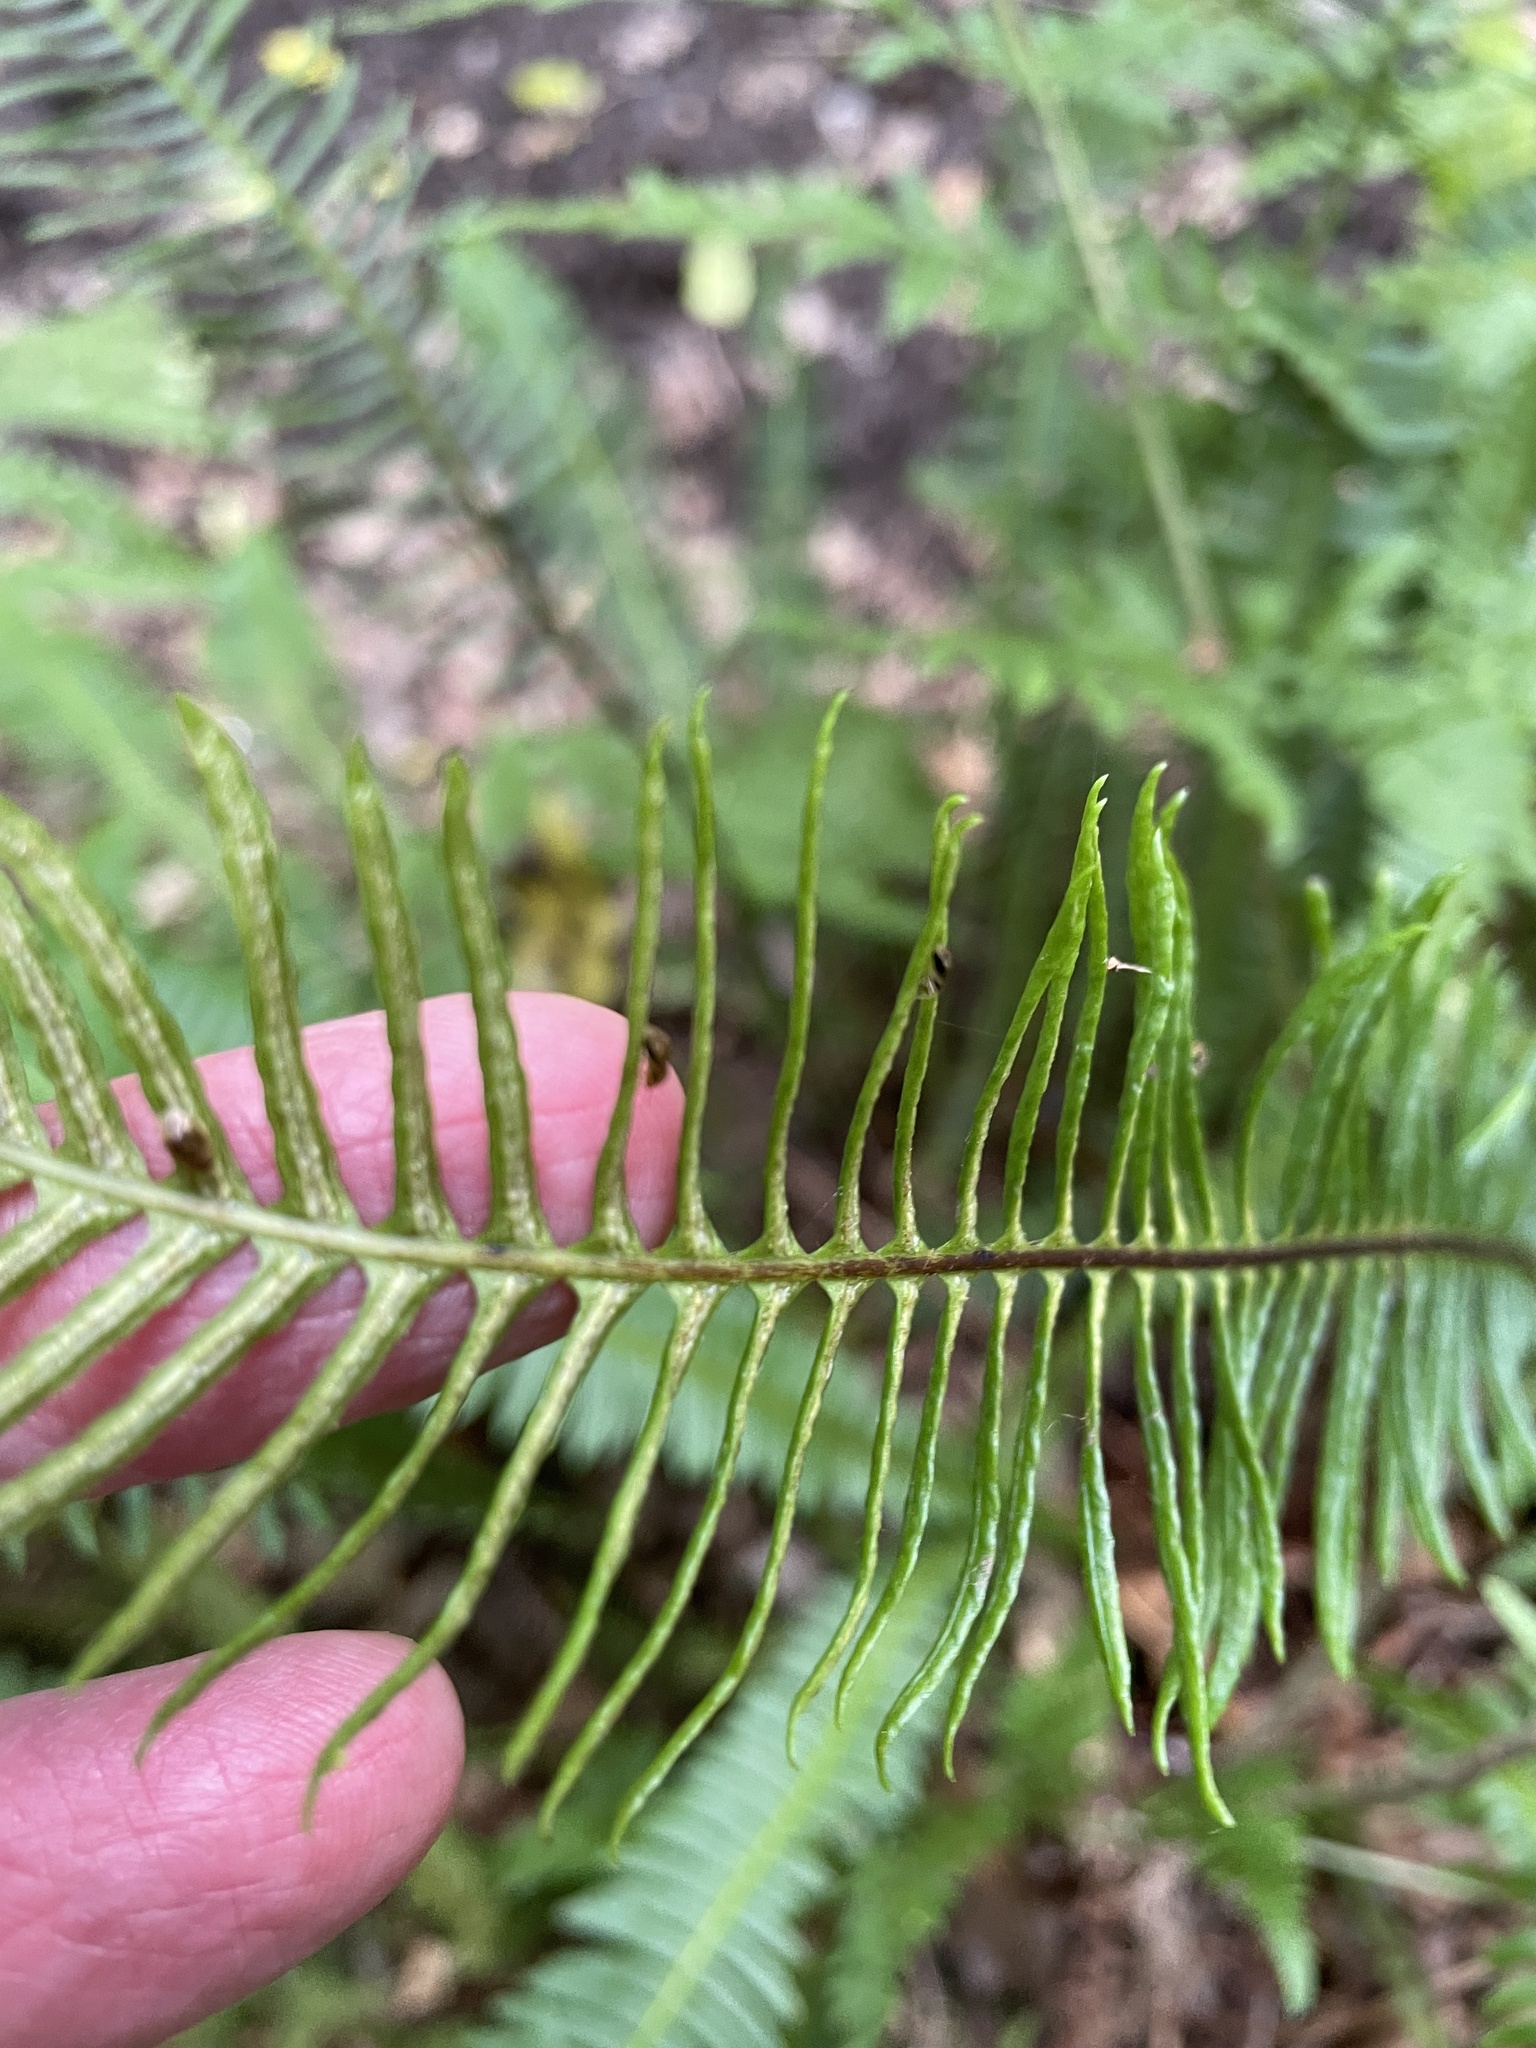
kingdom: Plantae
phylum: Tracheophyta
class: Polypodiopsida
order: Polypodiales
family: Blechnaceae
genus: Struthiopteris
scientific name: Struthiopteris spicant
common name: Deer fern
